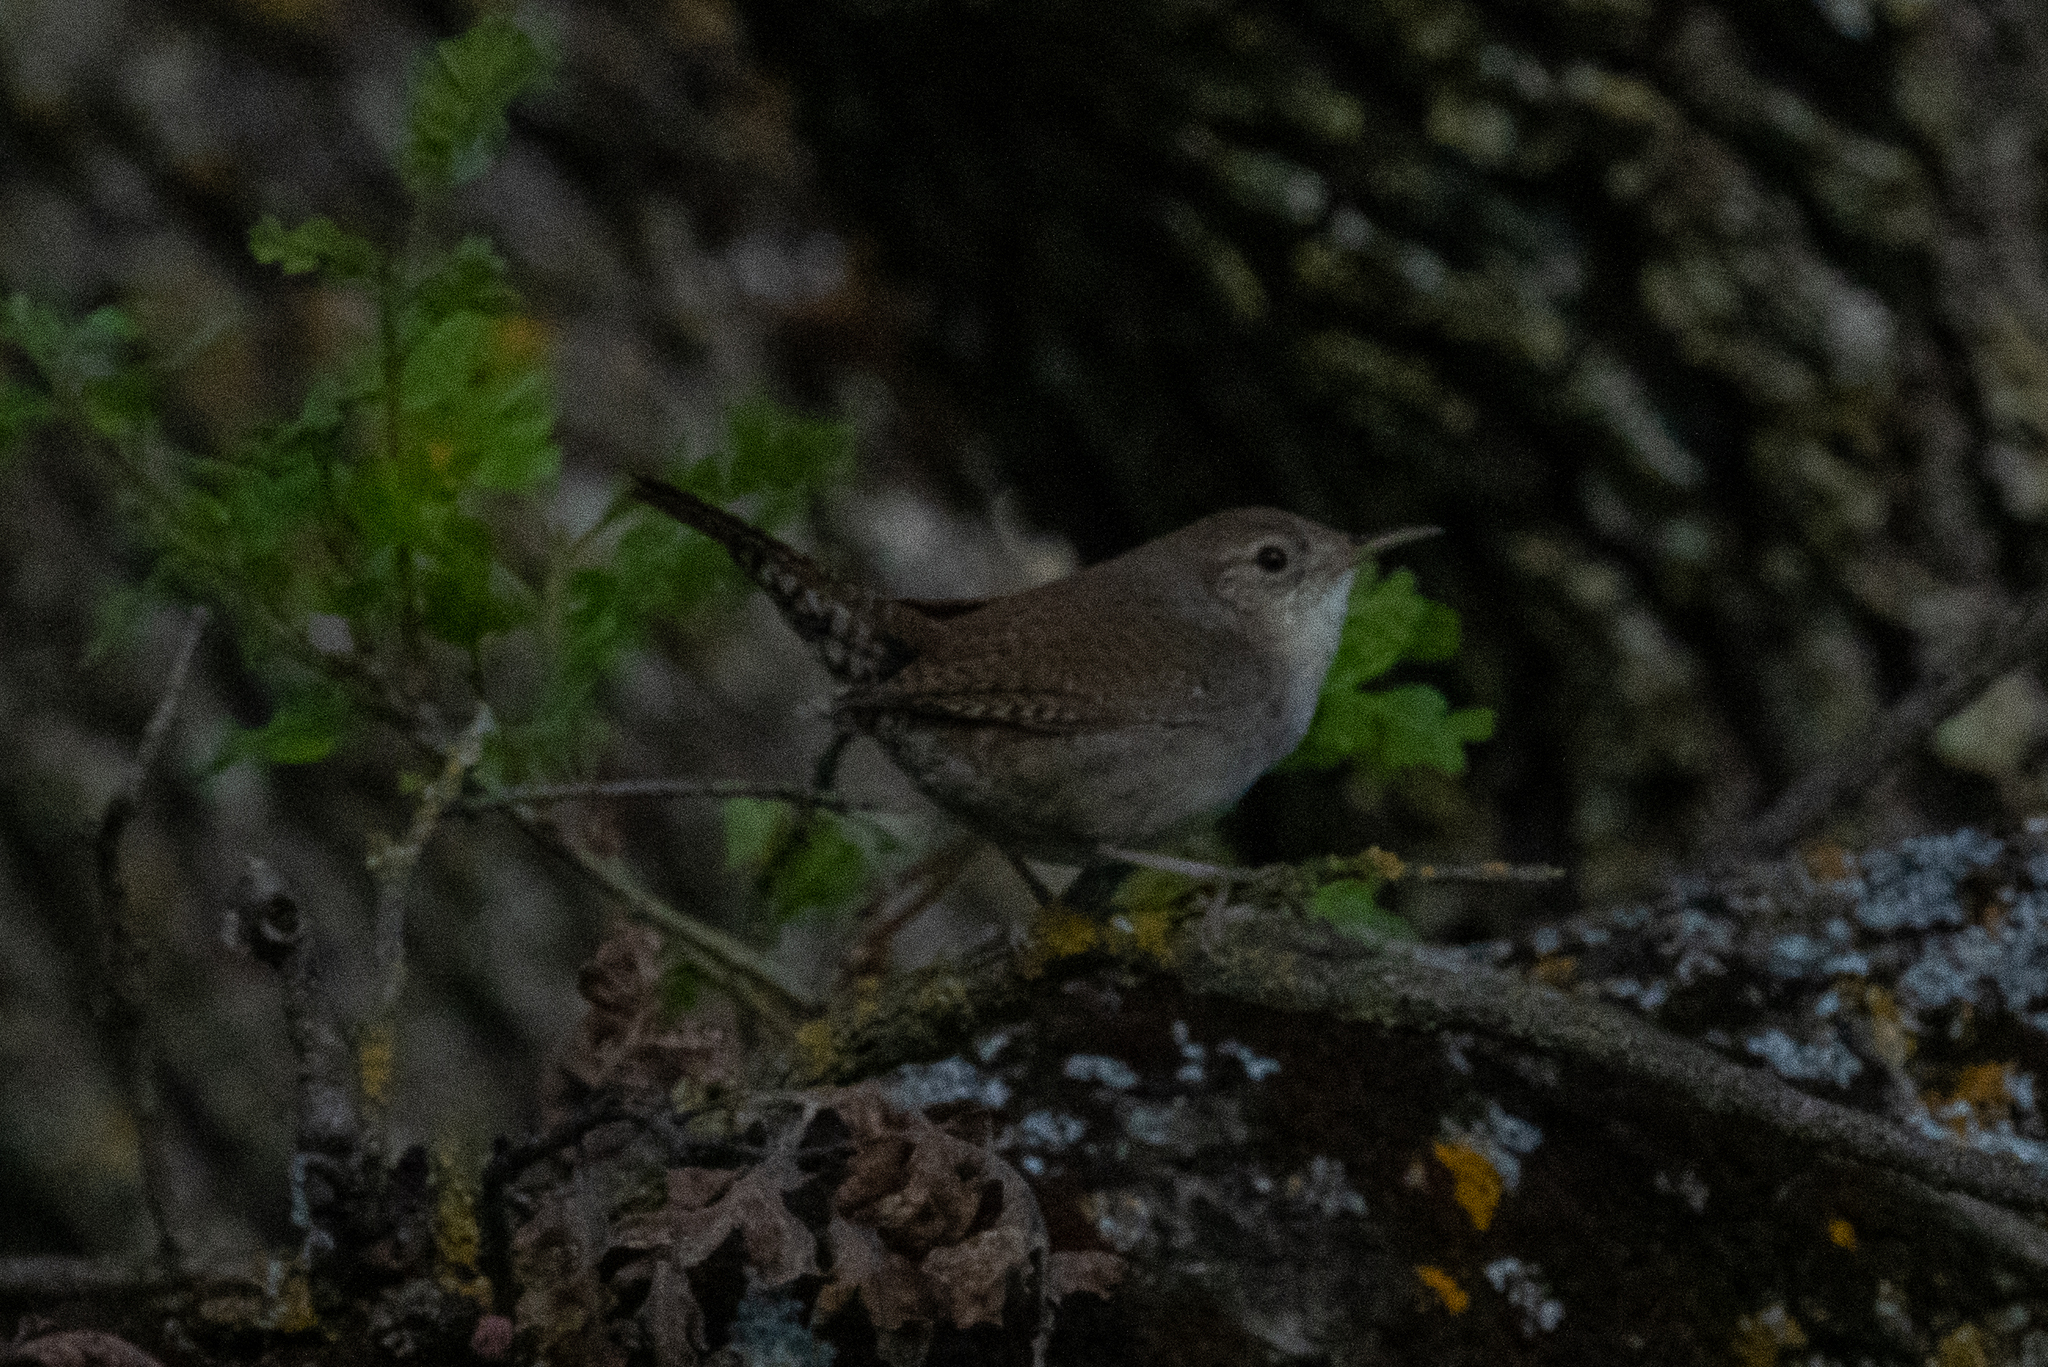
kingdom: Animalia
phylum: Chordata
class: Aves
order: Passeriformes
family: Troglodytidae
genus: Troglodytes
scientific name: Troglodytes aedon
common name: House wren
